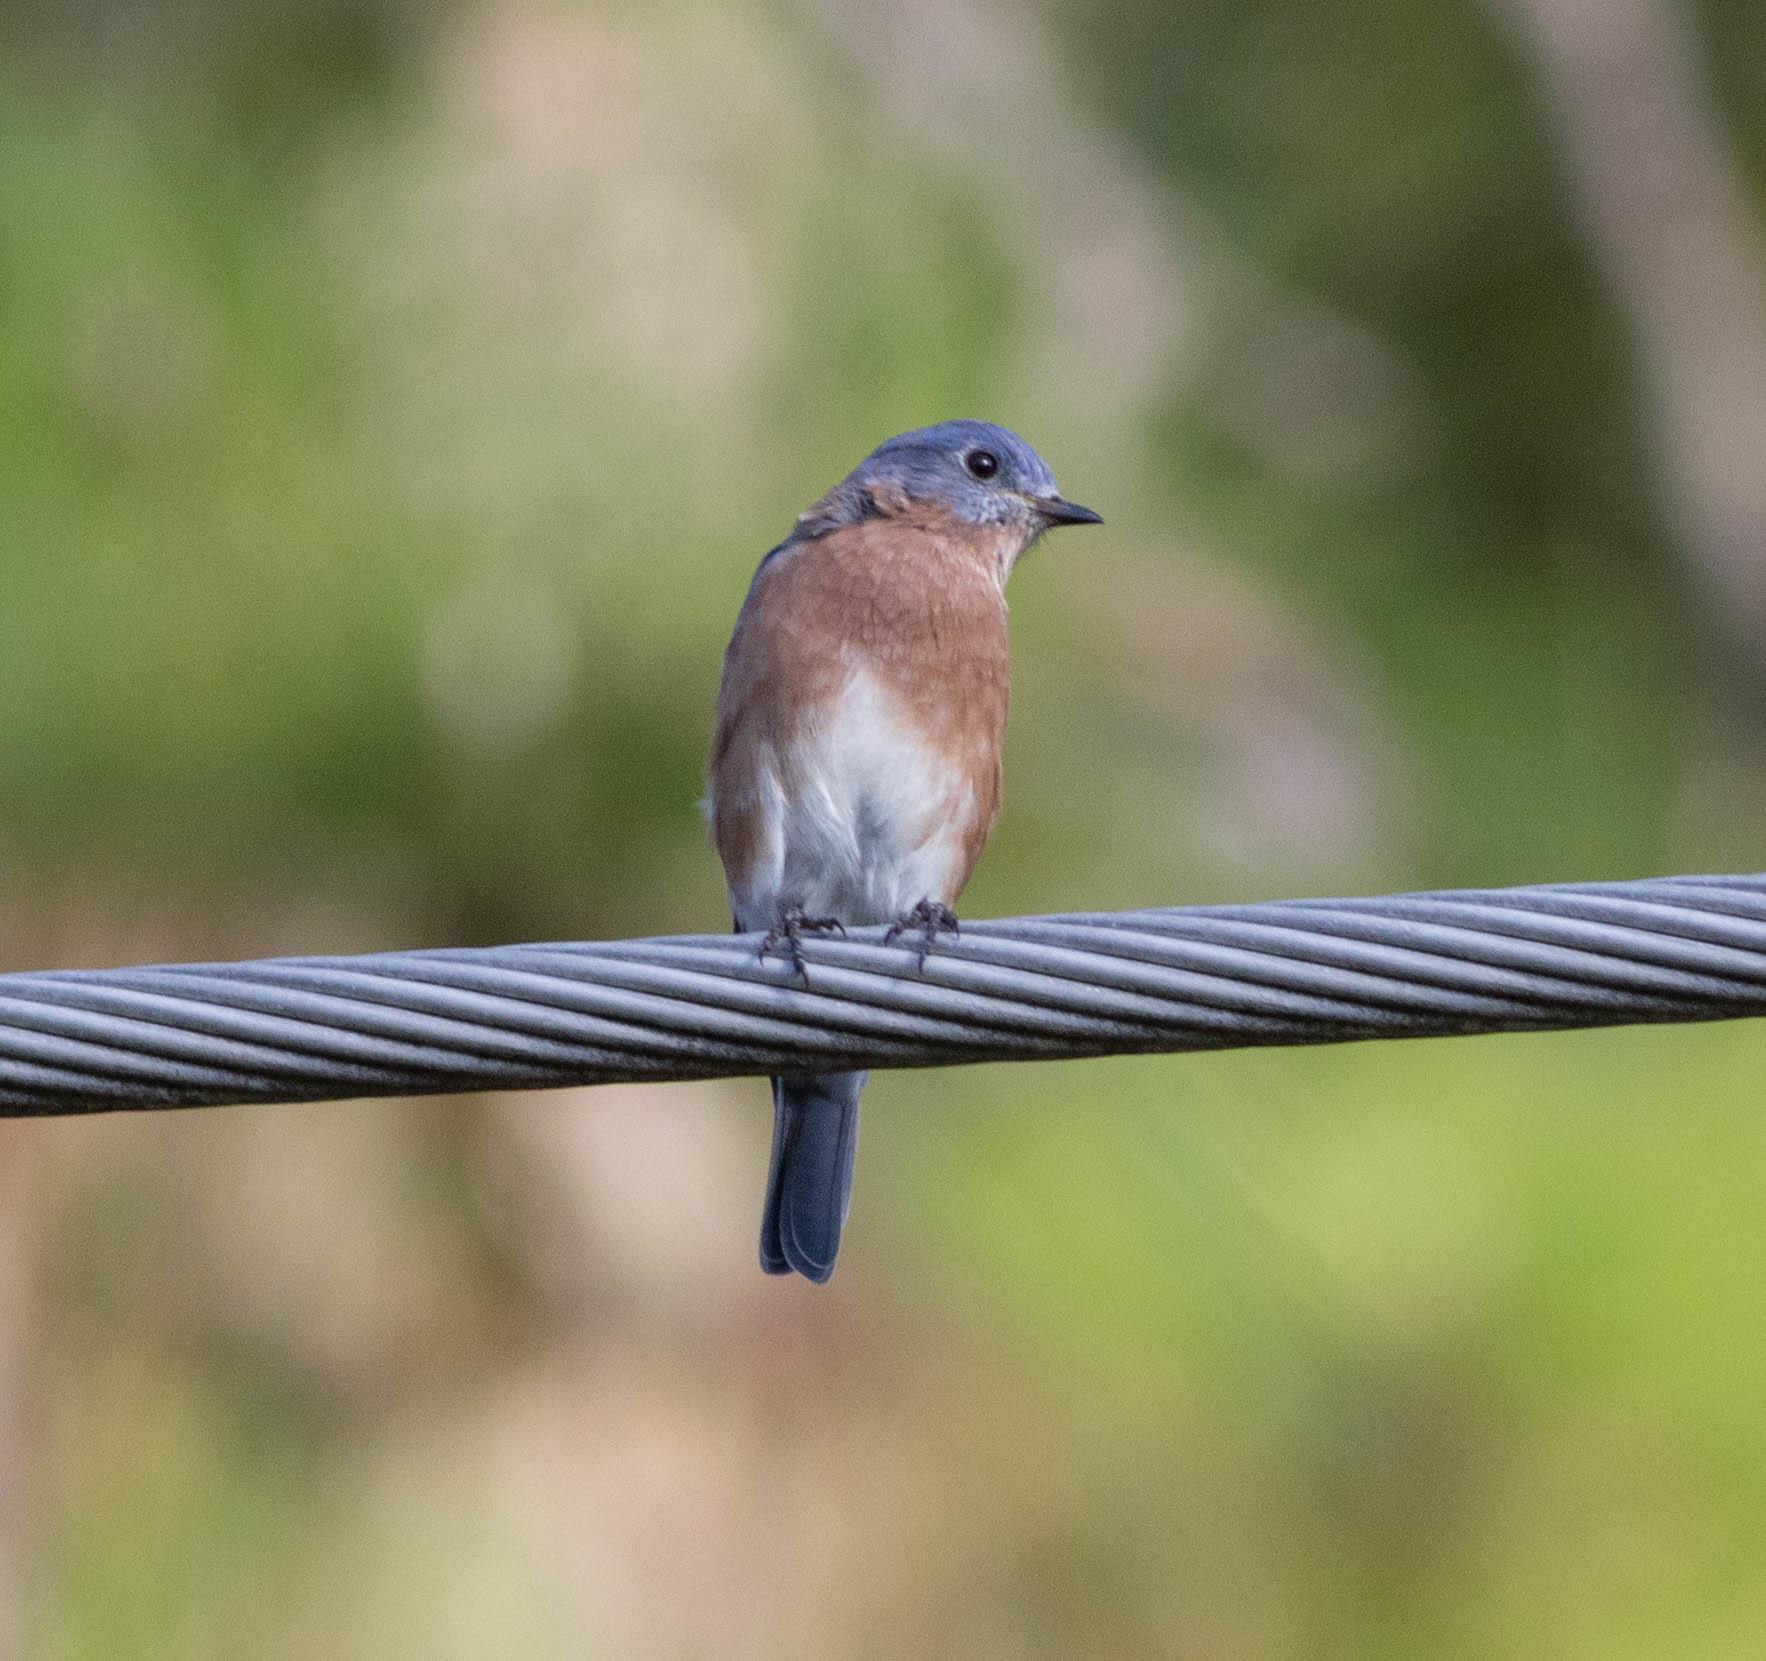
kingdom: Animalia
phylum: Chordata
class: Aves
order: Passeriformes
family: Turdidae
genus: Sialia
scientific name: Sialia sialis
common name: Eastern bluebird
